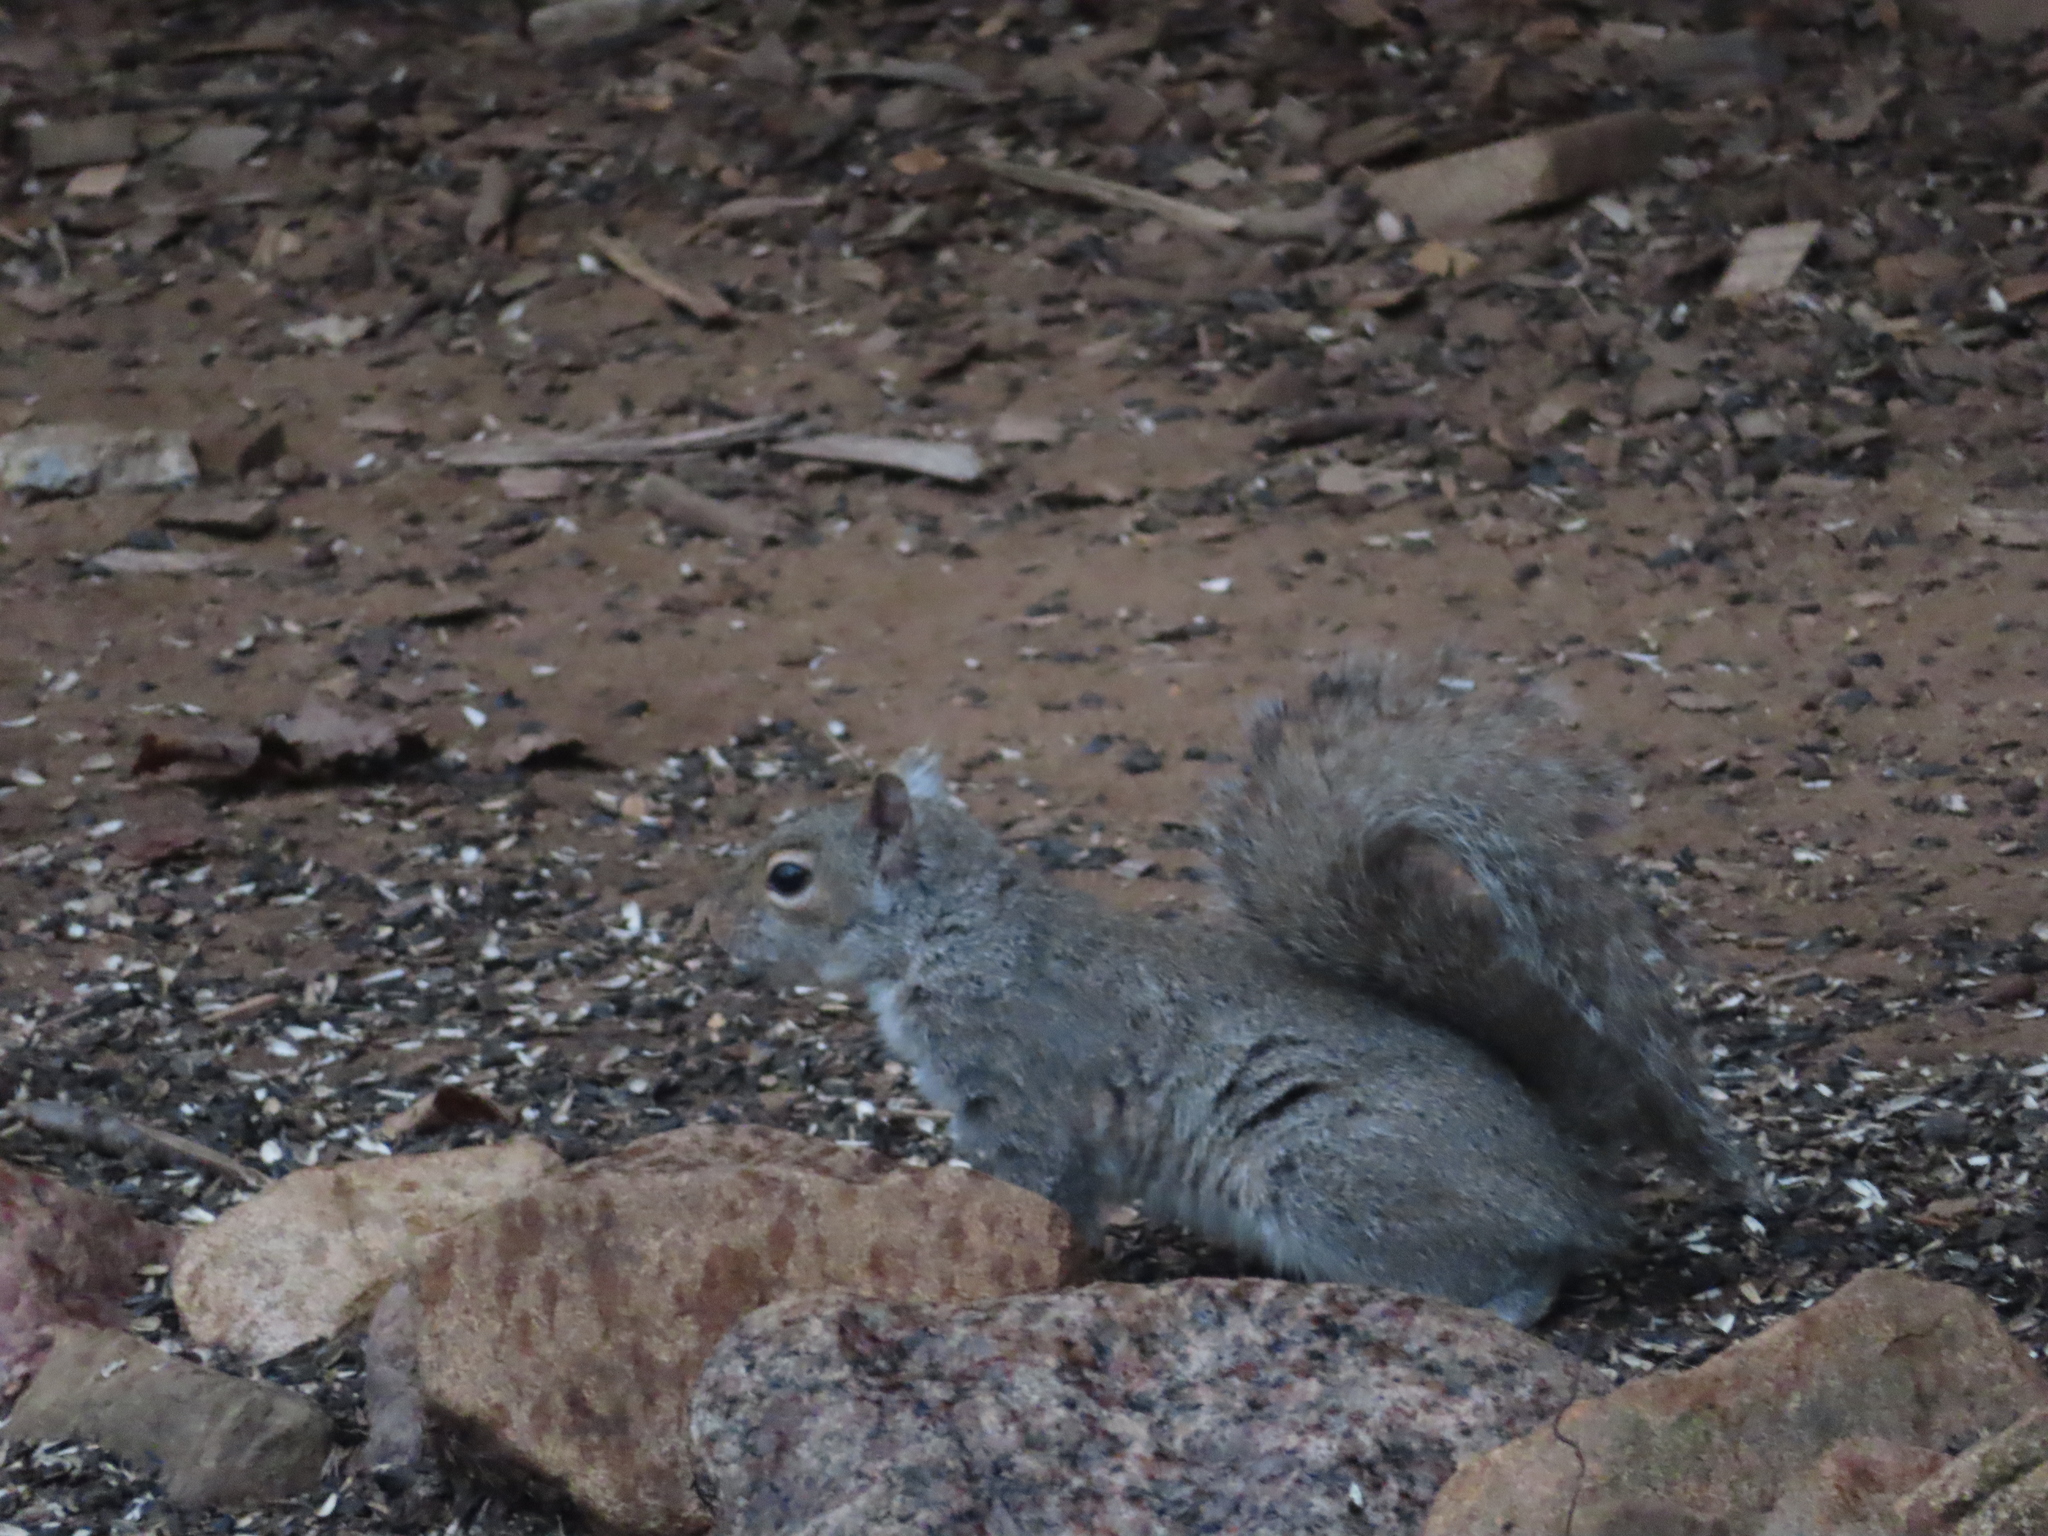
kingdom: Animalia
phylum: Chordata
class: Mammalia
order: Rodentia
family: Sciuridae
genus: Sciurus
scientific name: Sciurus carolinensis
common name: Eastern gray squirrel
